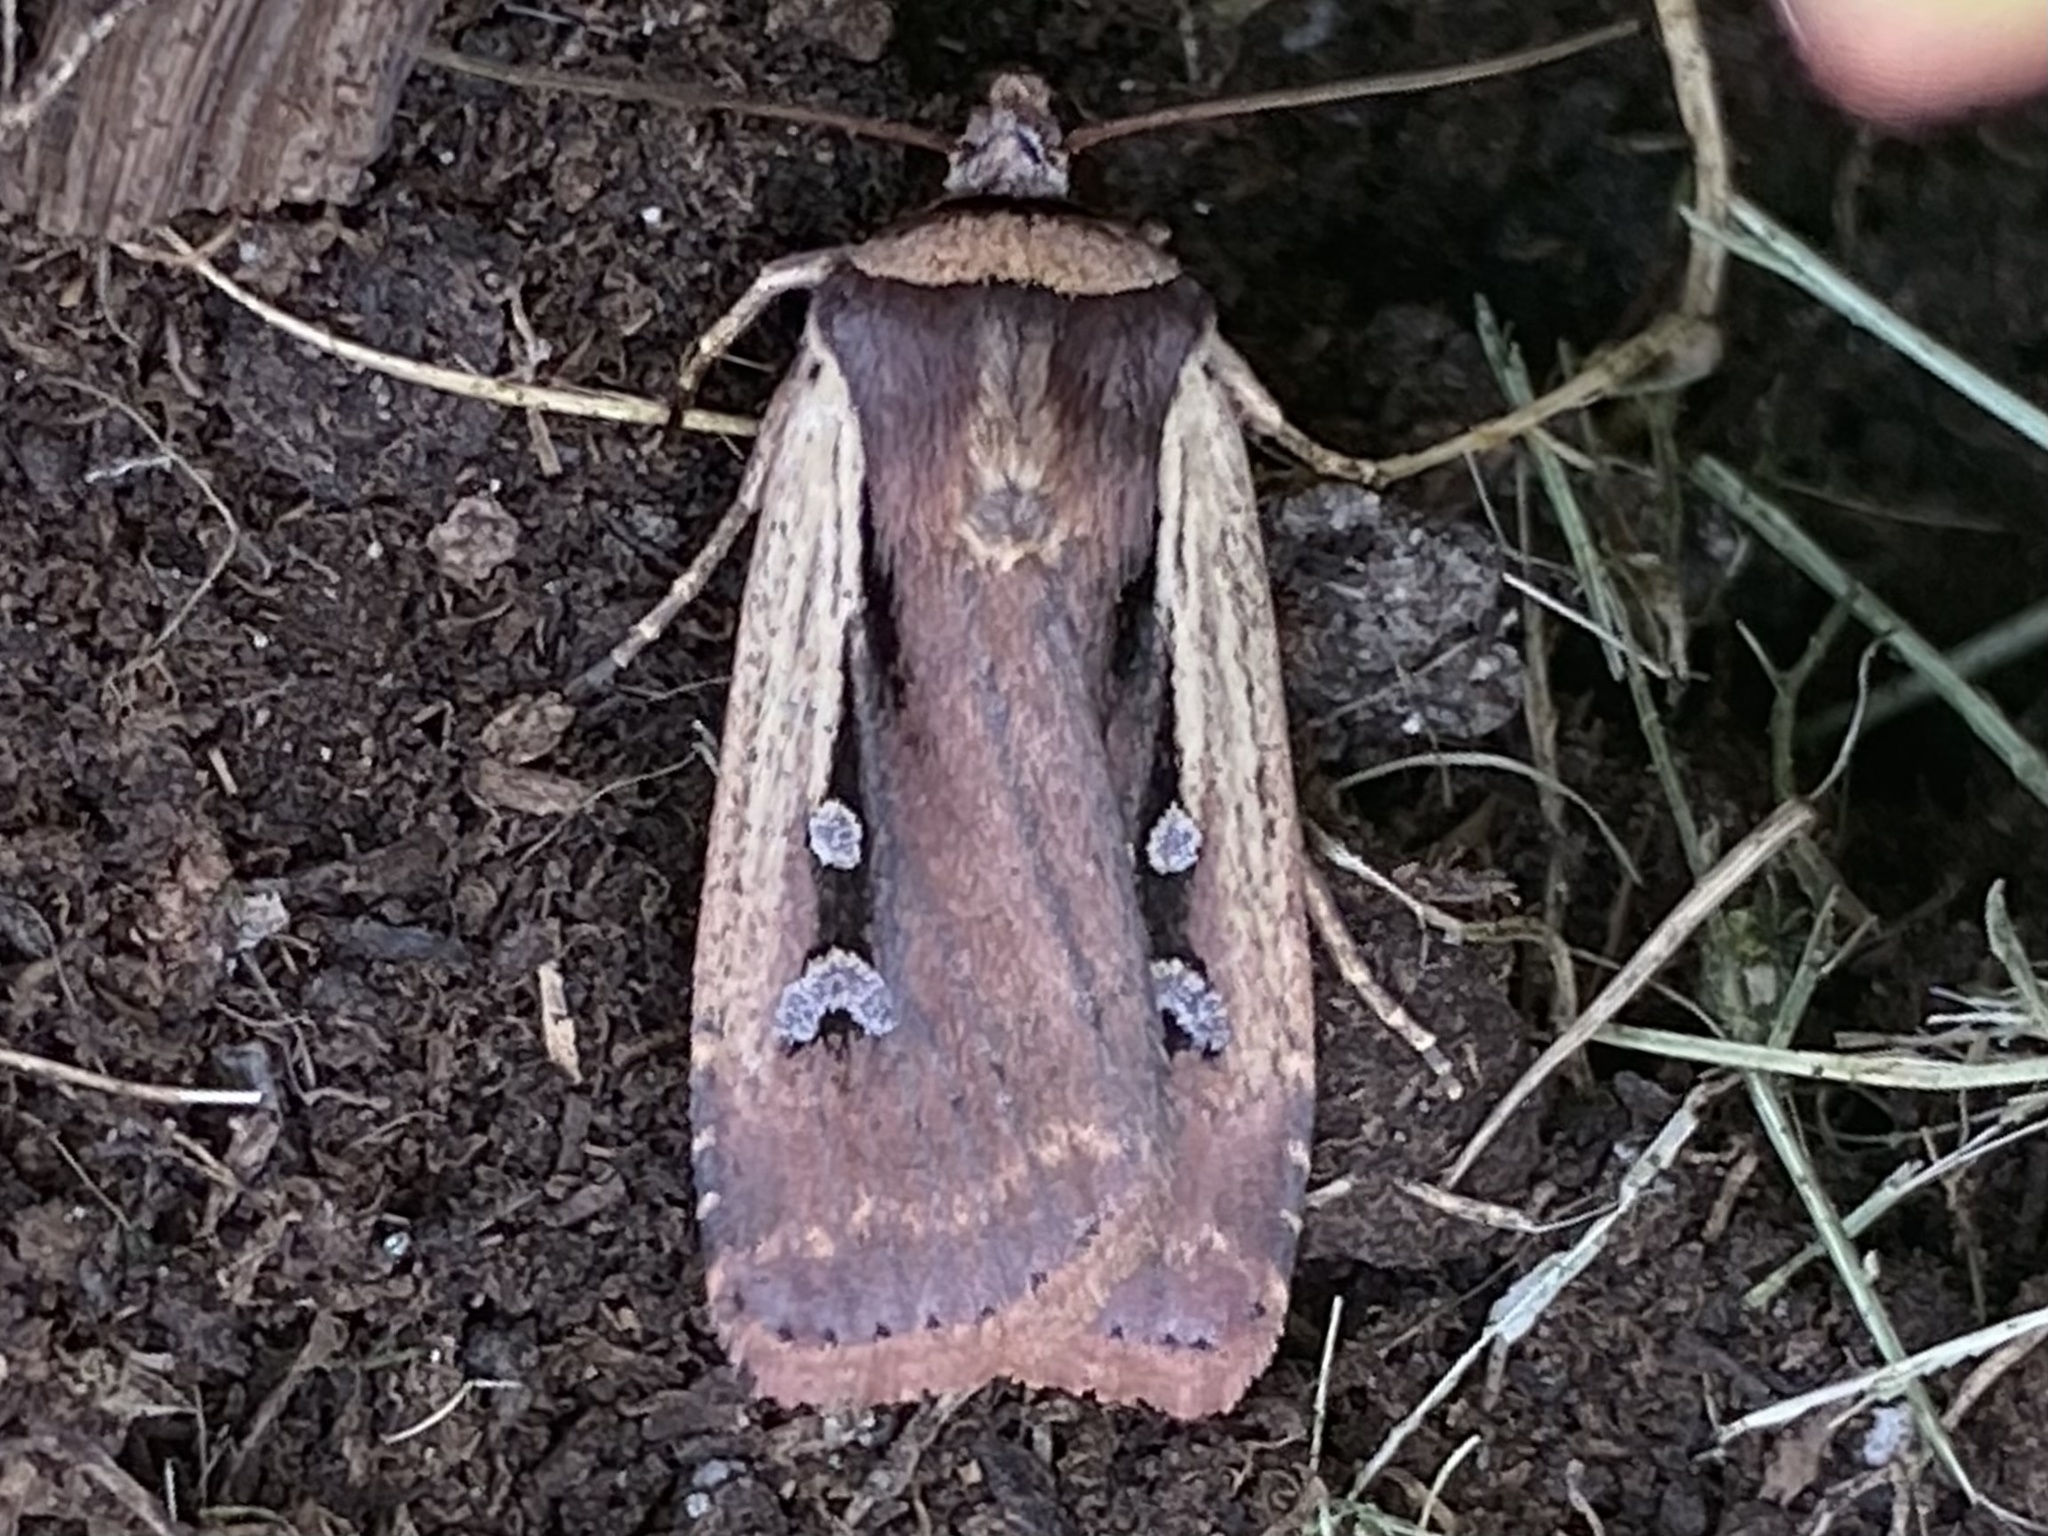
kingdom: Animalia
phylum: Arthropoda
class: Insecta
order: Lepidoptera
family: Noctuidae
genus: Ochropleura
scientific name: Ochropleura implecta
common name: Flame-shouldered dart
